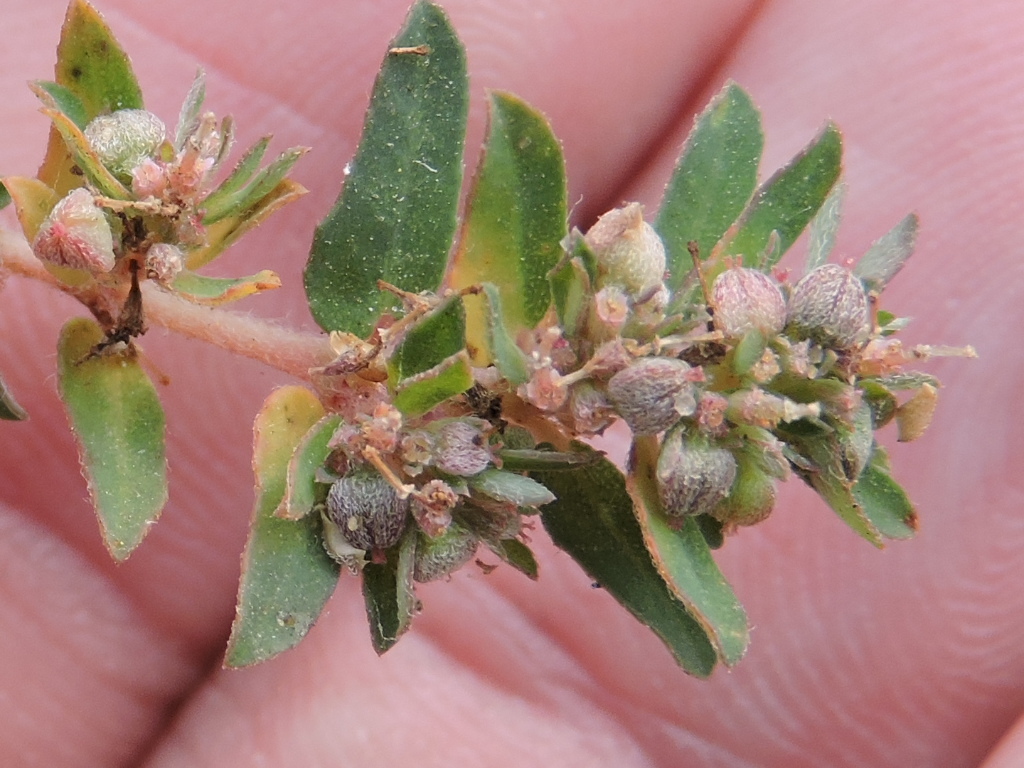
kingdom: Plantae
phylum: Tracheophyta
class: Magnoliopsida
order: Malpighiales
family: Euphorbiaceae
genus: Euphorbia
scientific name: Euphorbia maculata
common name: Spotted spurge
